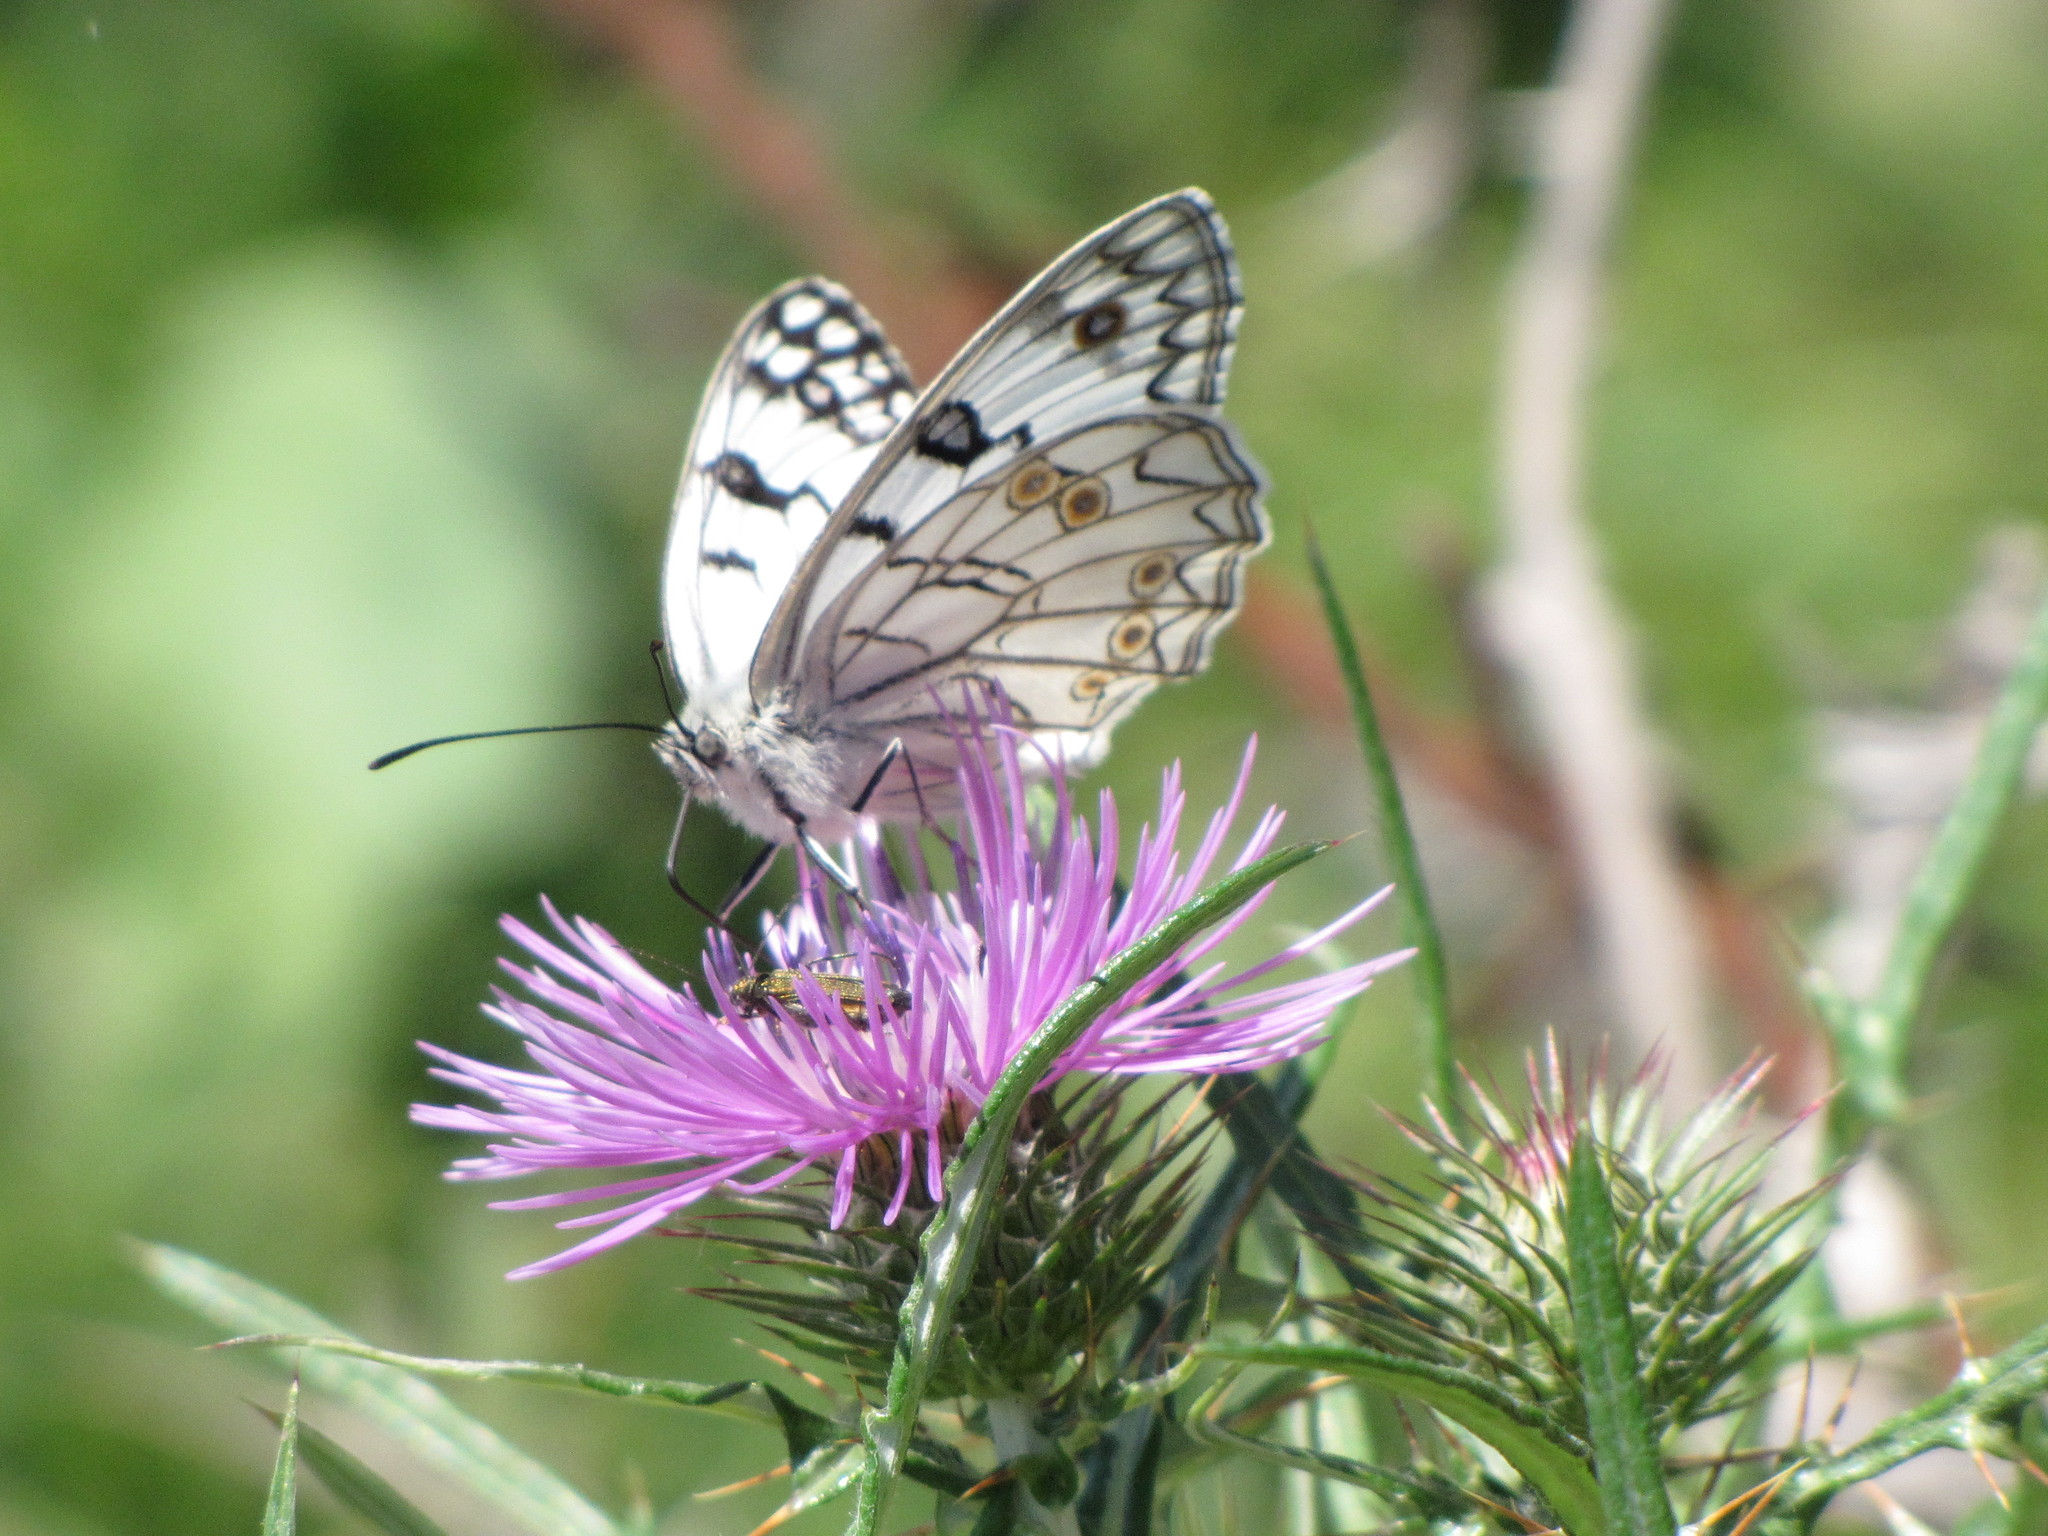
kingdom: Animalia
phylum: Arthropoda
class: Insecta
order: Lepidoptera
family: Nymphalidae
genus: Melanargia
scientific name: Melanargia arge
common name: Italian marbled white
